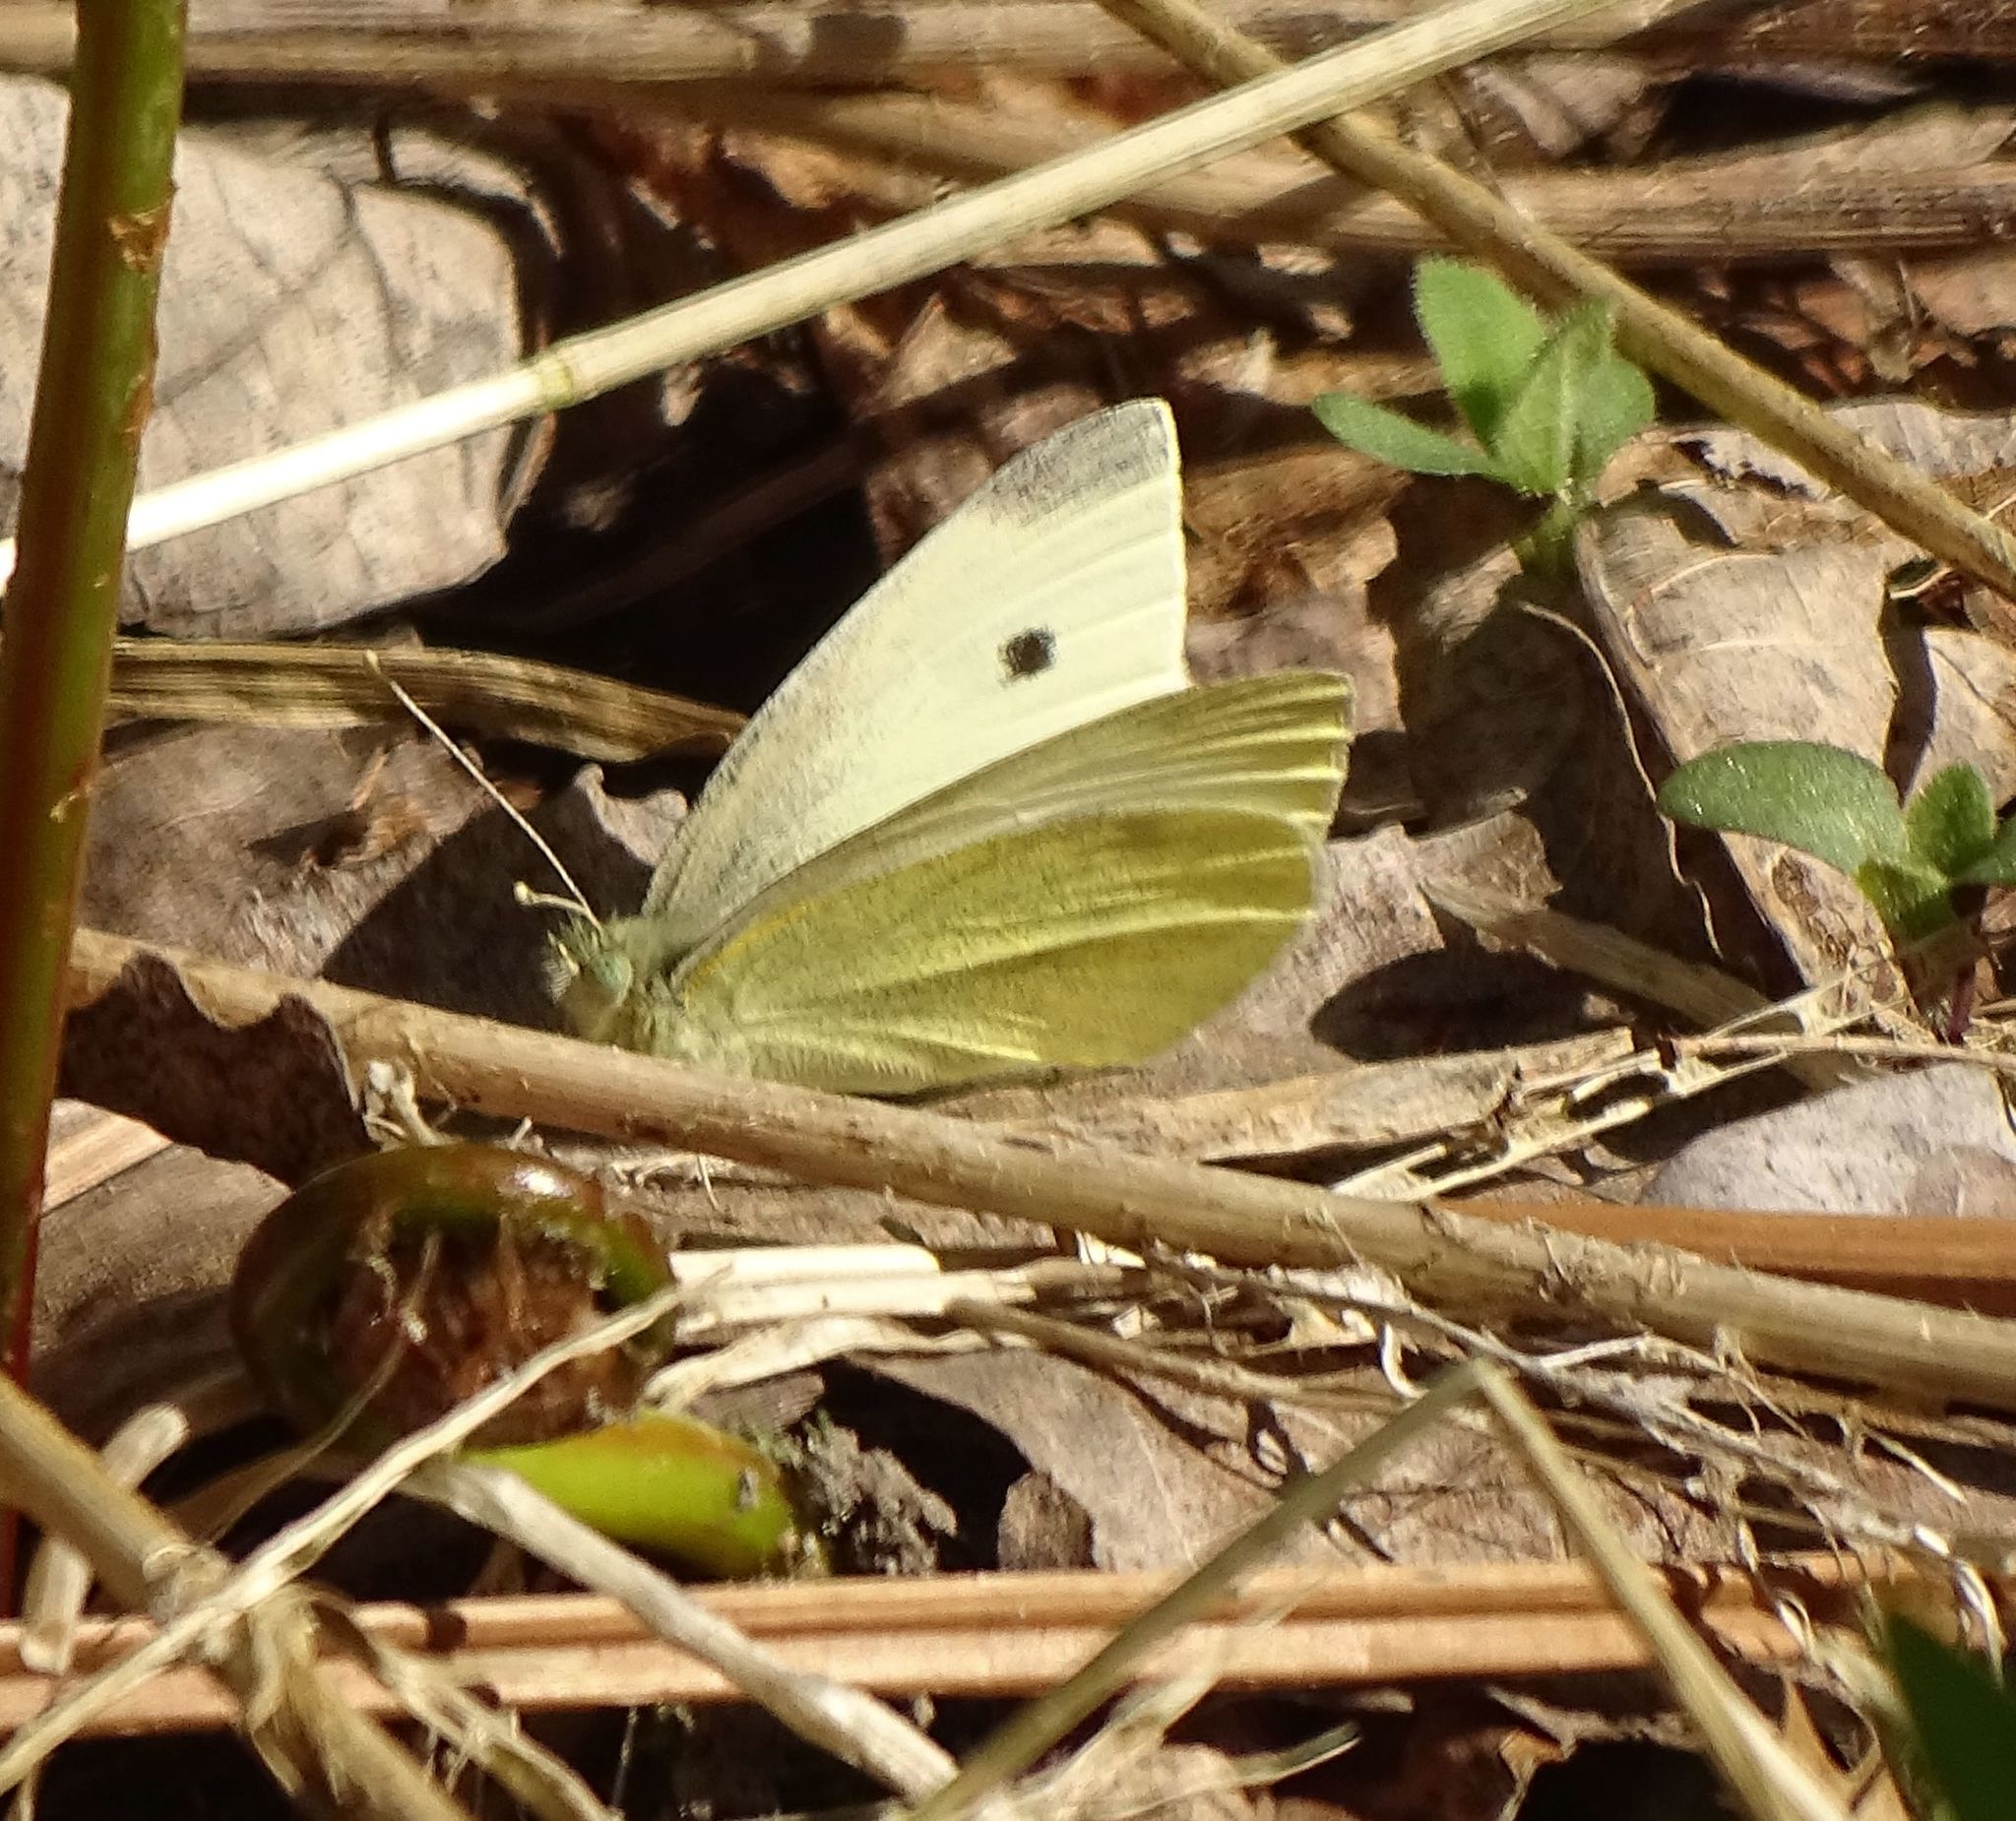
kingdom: Animalia
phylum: Arthropoda
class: Insecta
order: Lepidoptera
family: Pieridae
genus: Pieris
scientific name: Pieris rapae
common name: Small white
